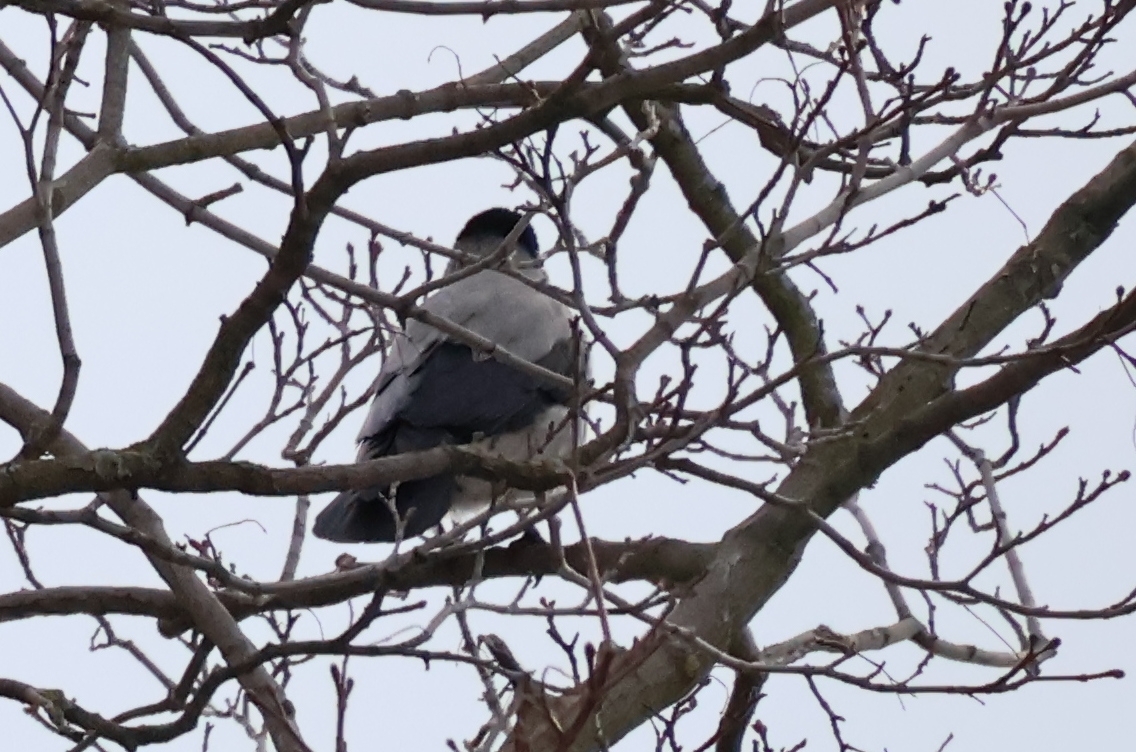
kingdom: Animalia
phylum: Chordata
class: Aves
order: Passeriformes
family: Corvidae
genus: Corvus
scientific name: Corvus cornix
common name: Hooded crow
